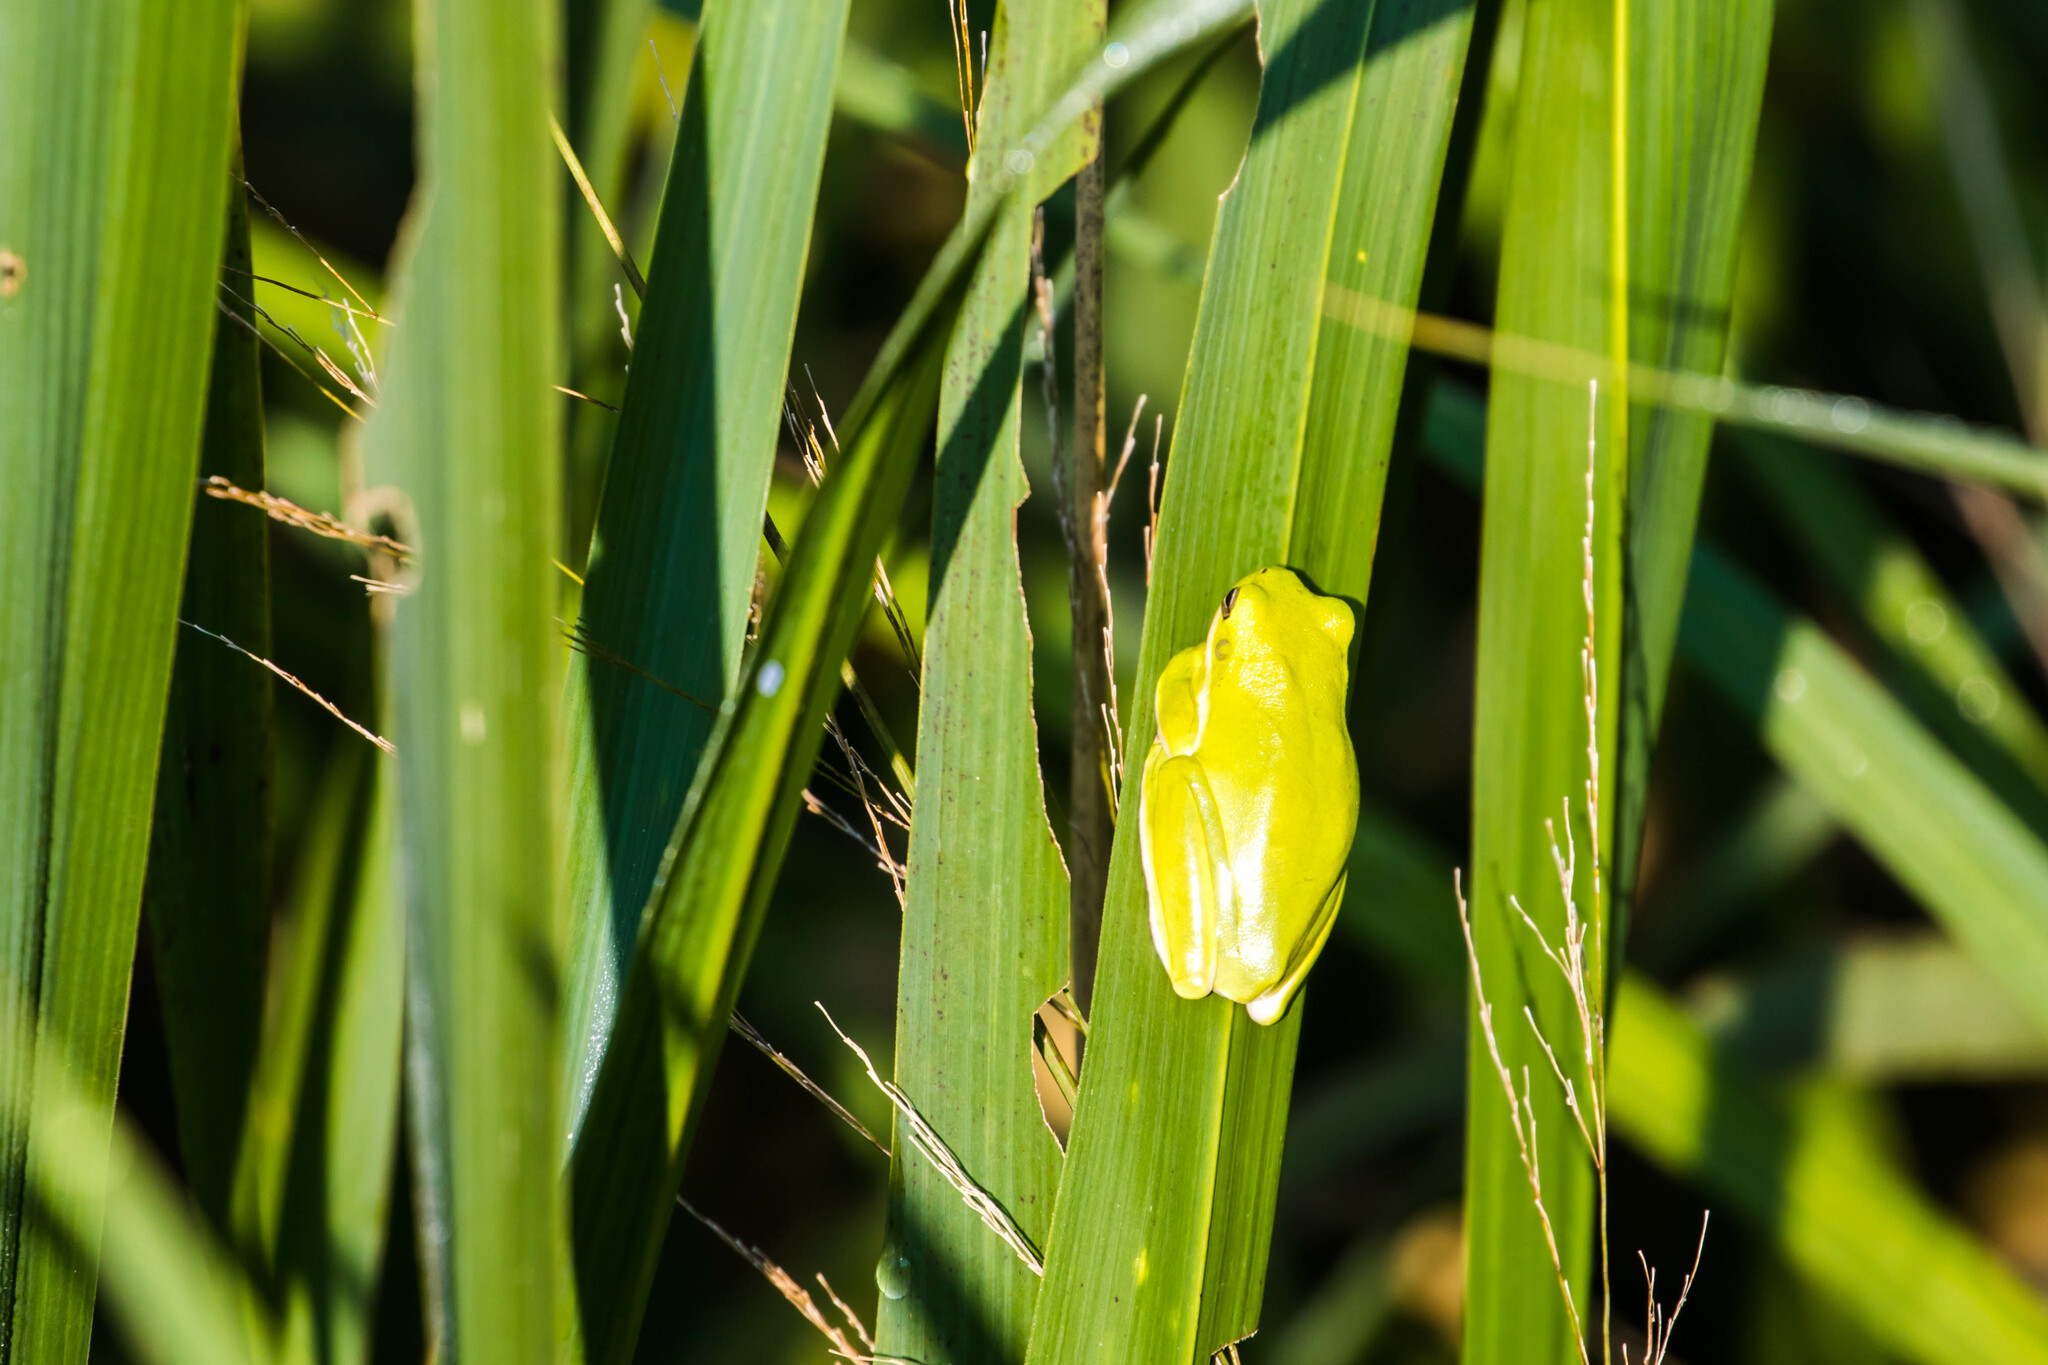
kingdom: Animalia
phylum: Chordata
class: Amphibia
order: Anura
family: Hylidae
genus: Dryophytes
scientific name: Dryophytes cinereus
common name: Green treefrog
